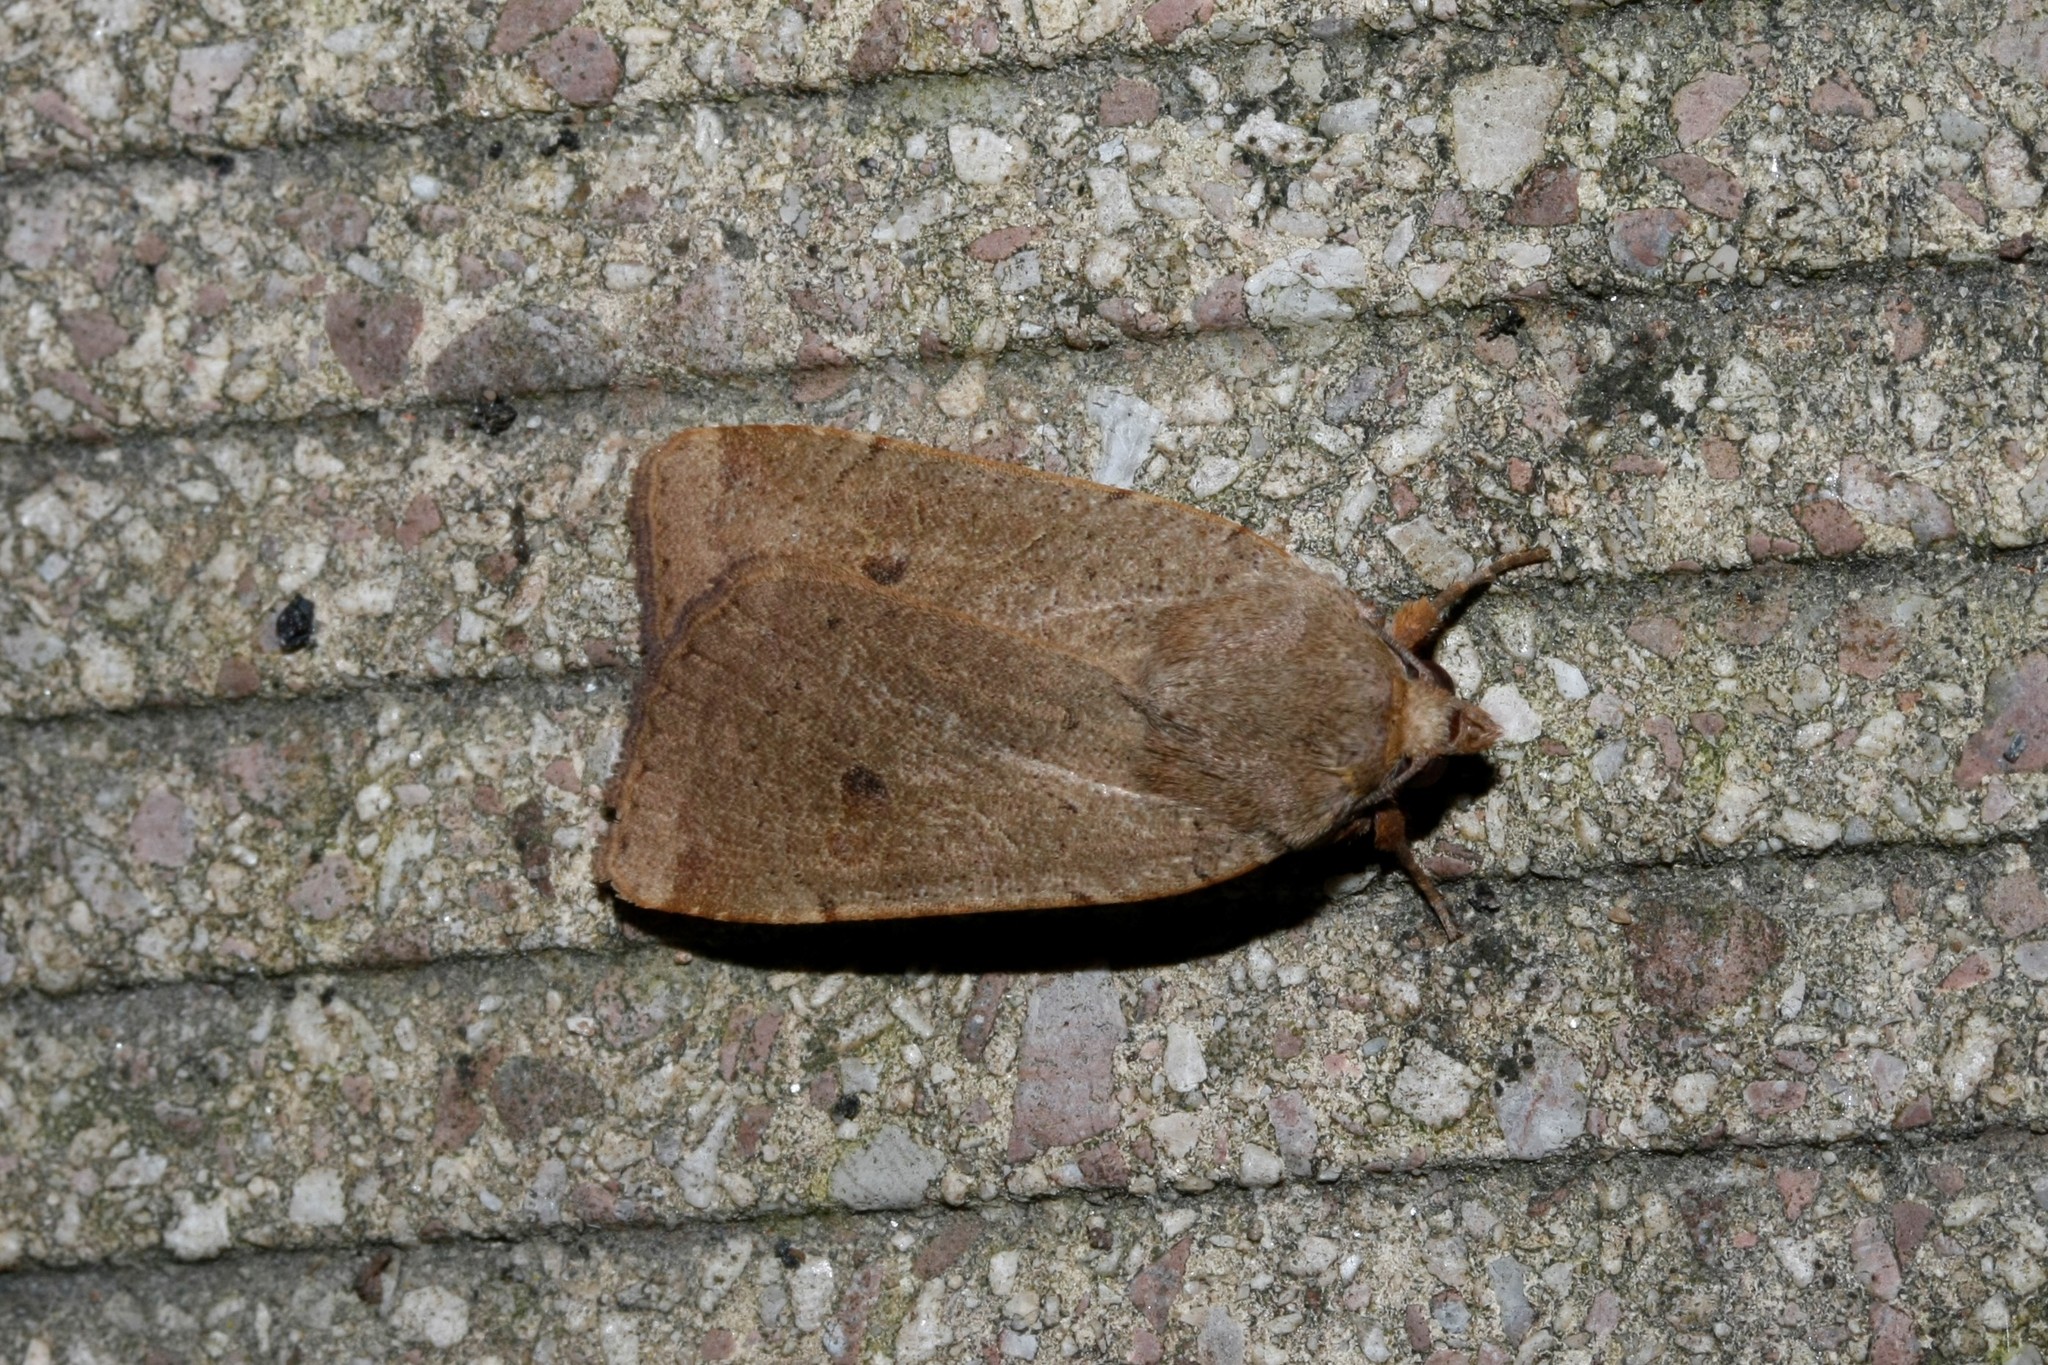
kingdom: Animalia
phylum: Arthropoda
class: Insecta
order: Lepidoptera
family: Noctuidae
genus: Noctua
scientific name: Noctua comes
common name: Lesser yellow underwing
